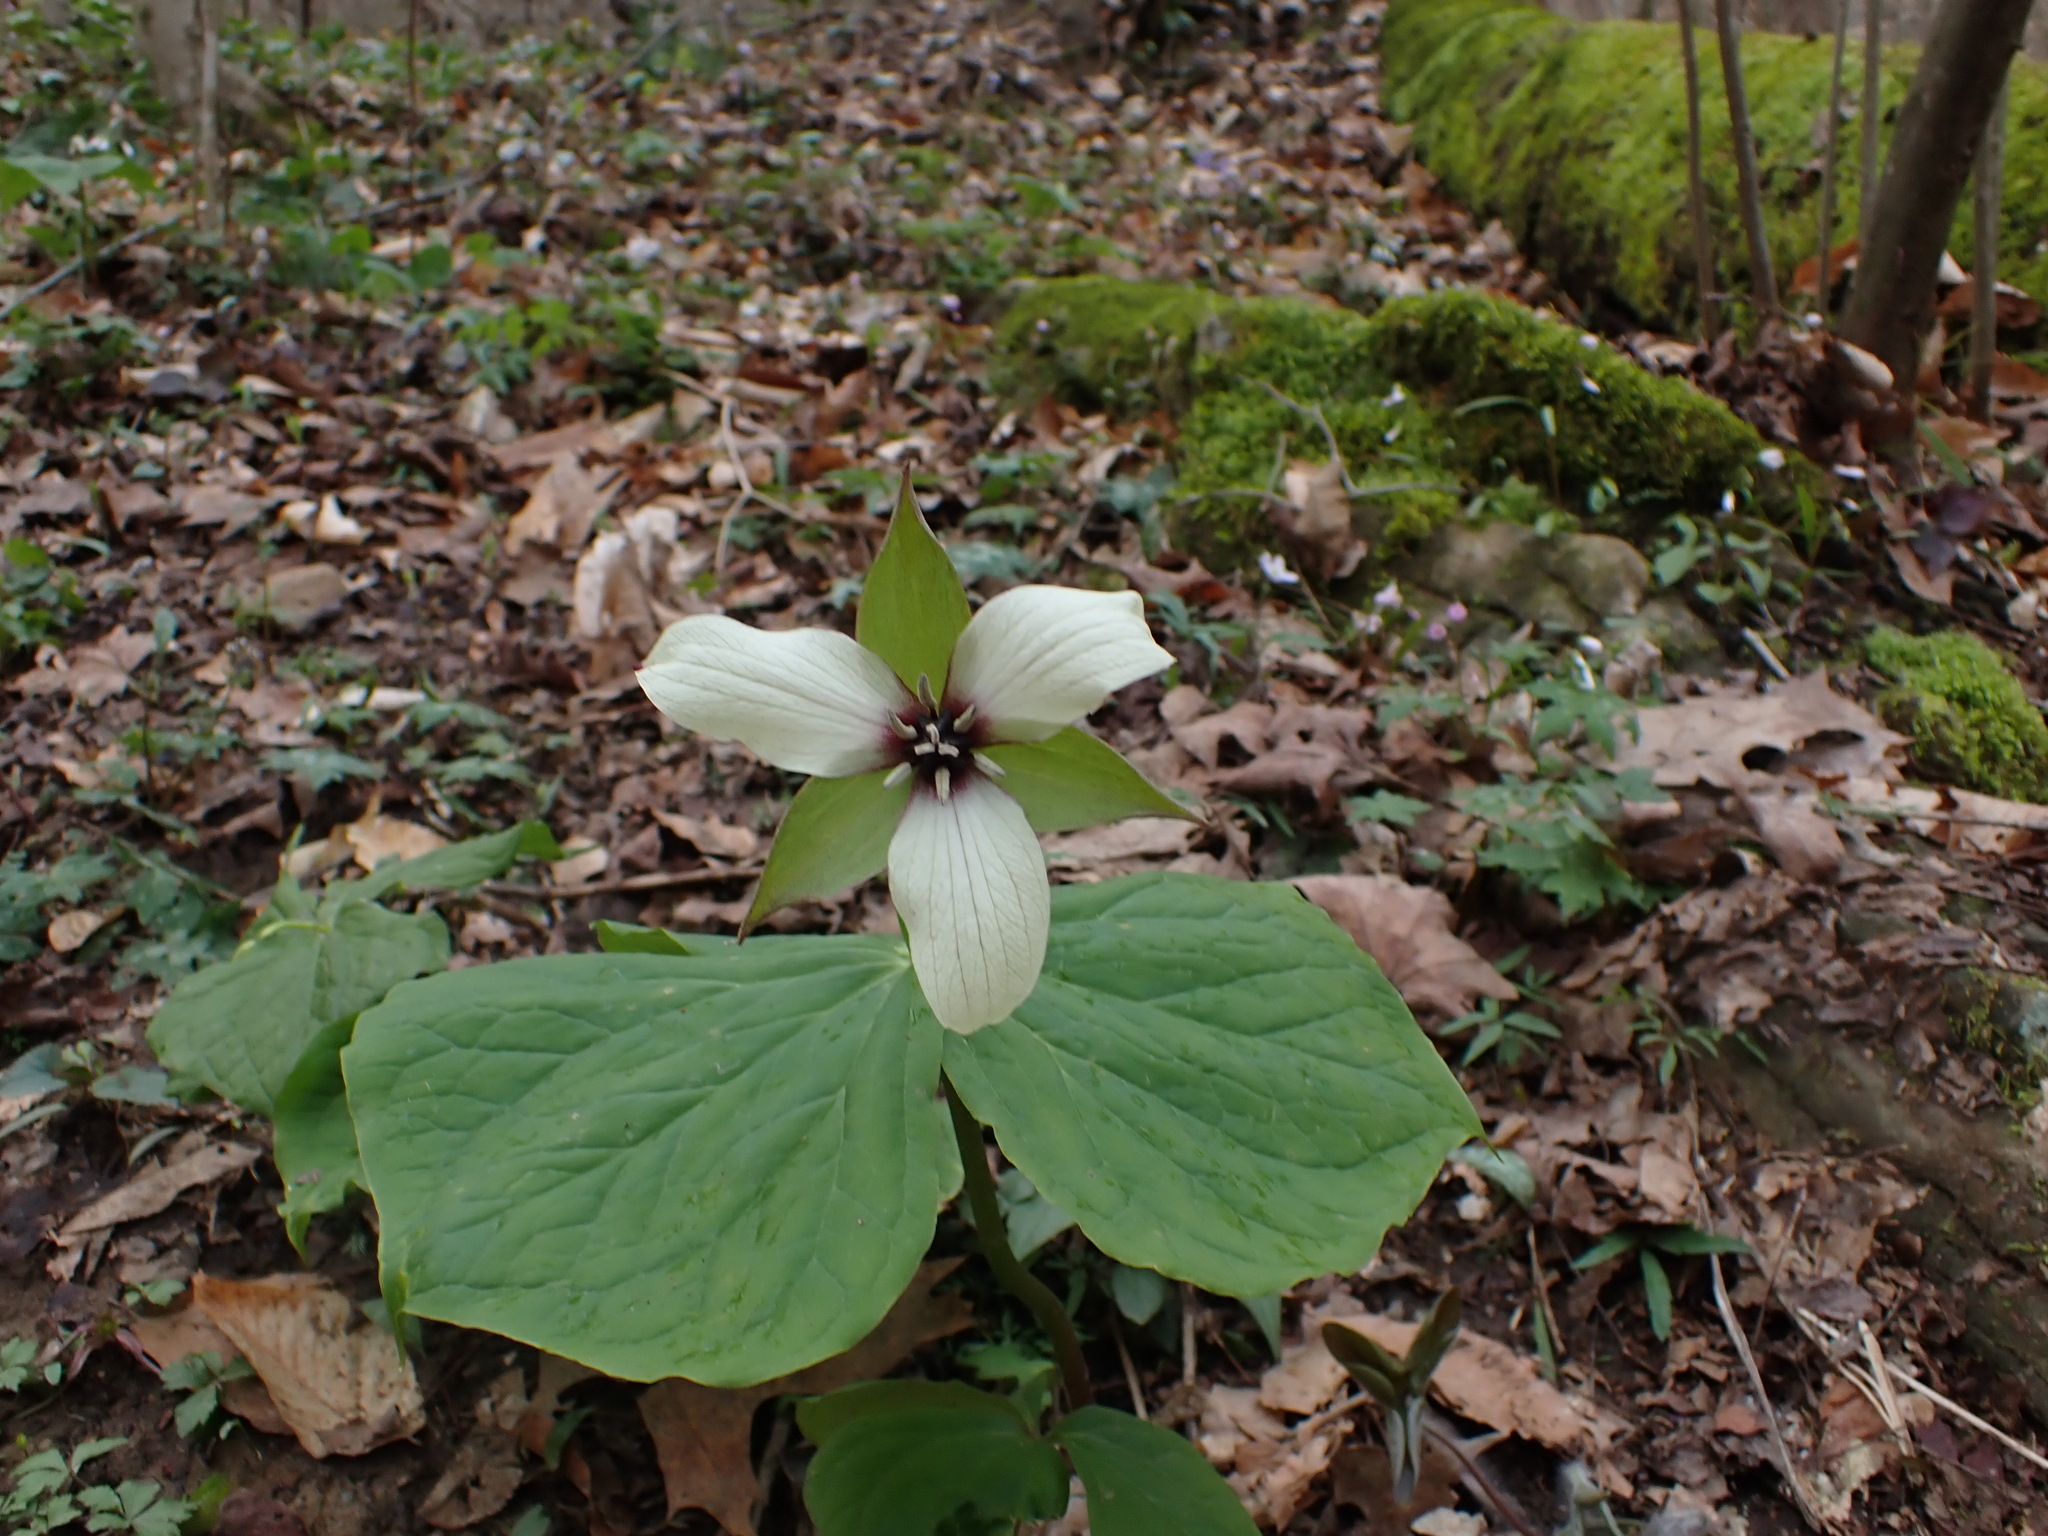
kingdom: Plantae
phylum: Tracheophyta
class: Liliopsida
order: Liliales
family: Melanthiaceae
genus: Trillium
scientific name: Trillium erectum
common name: Purple trillium
